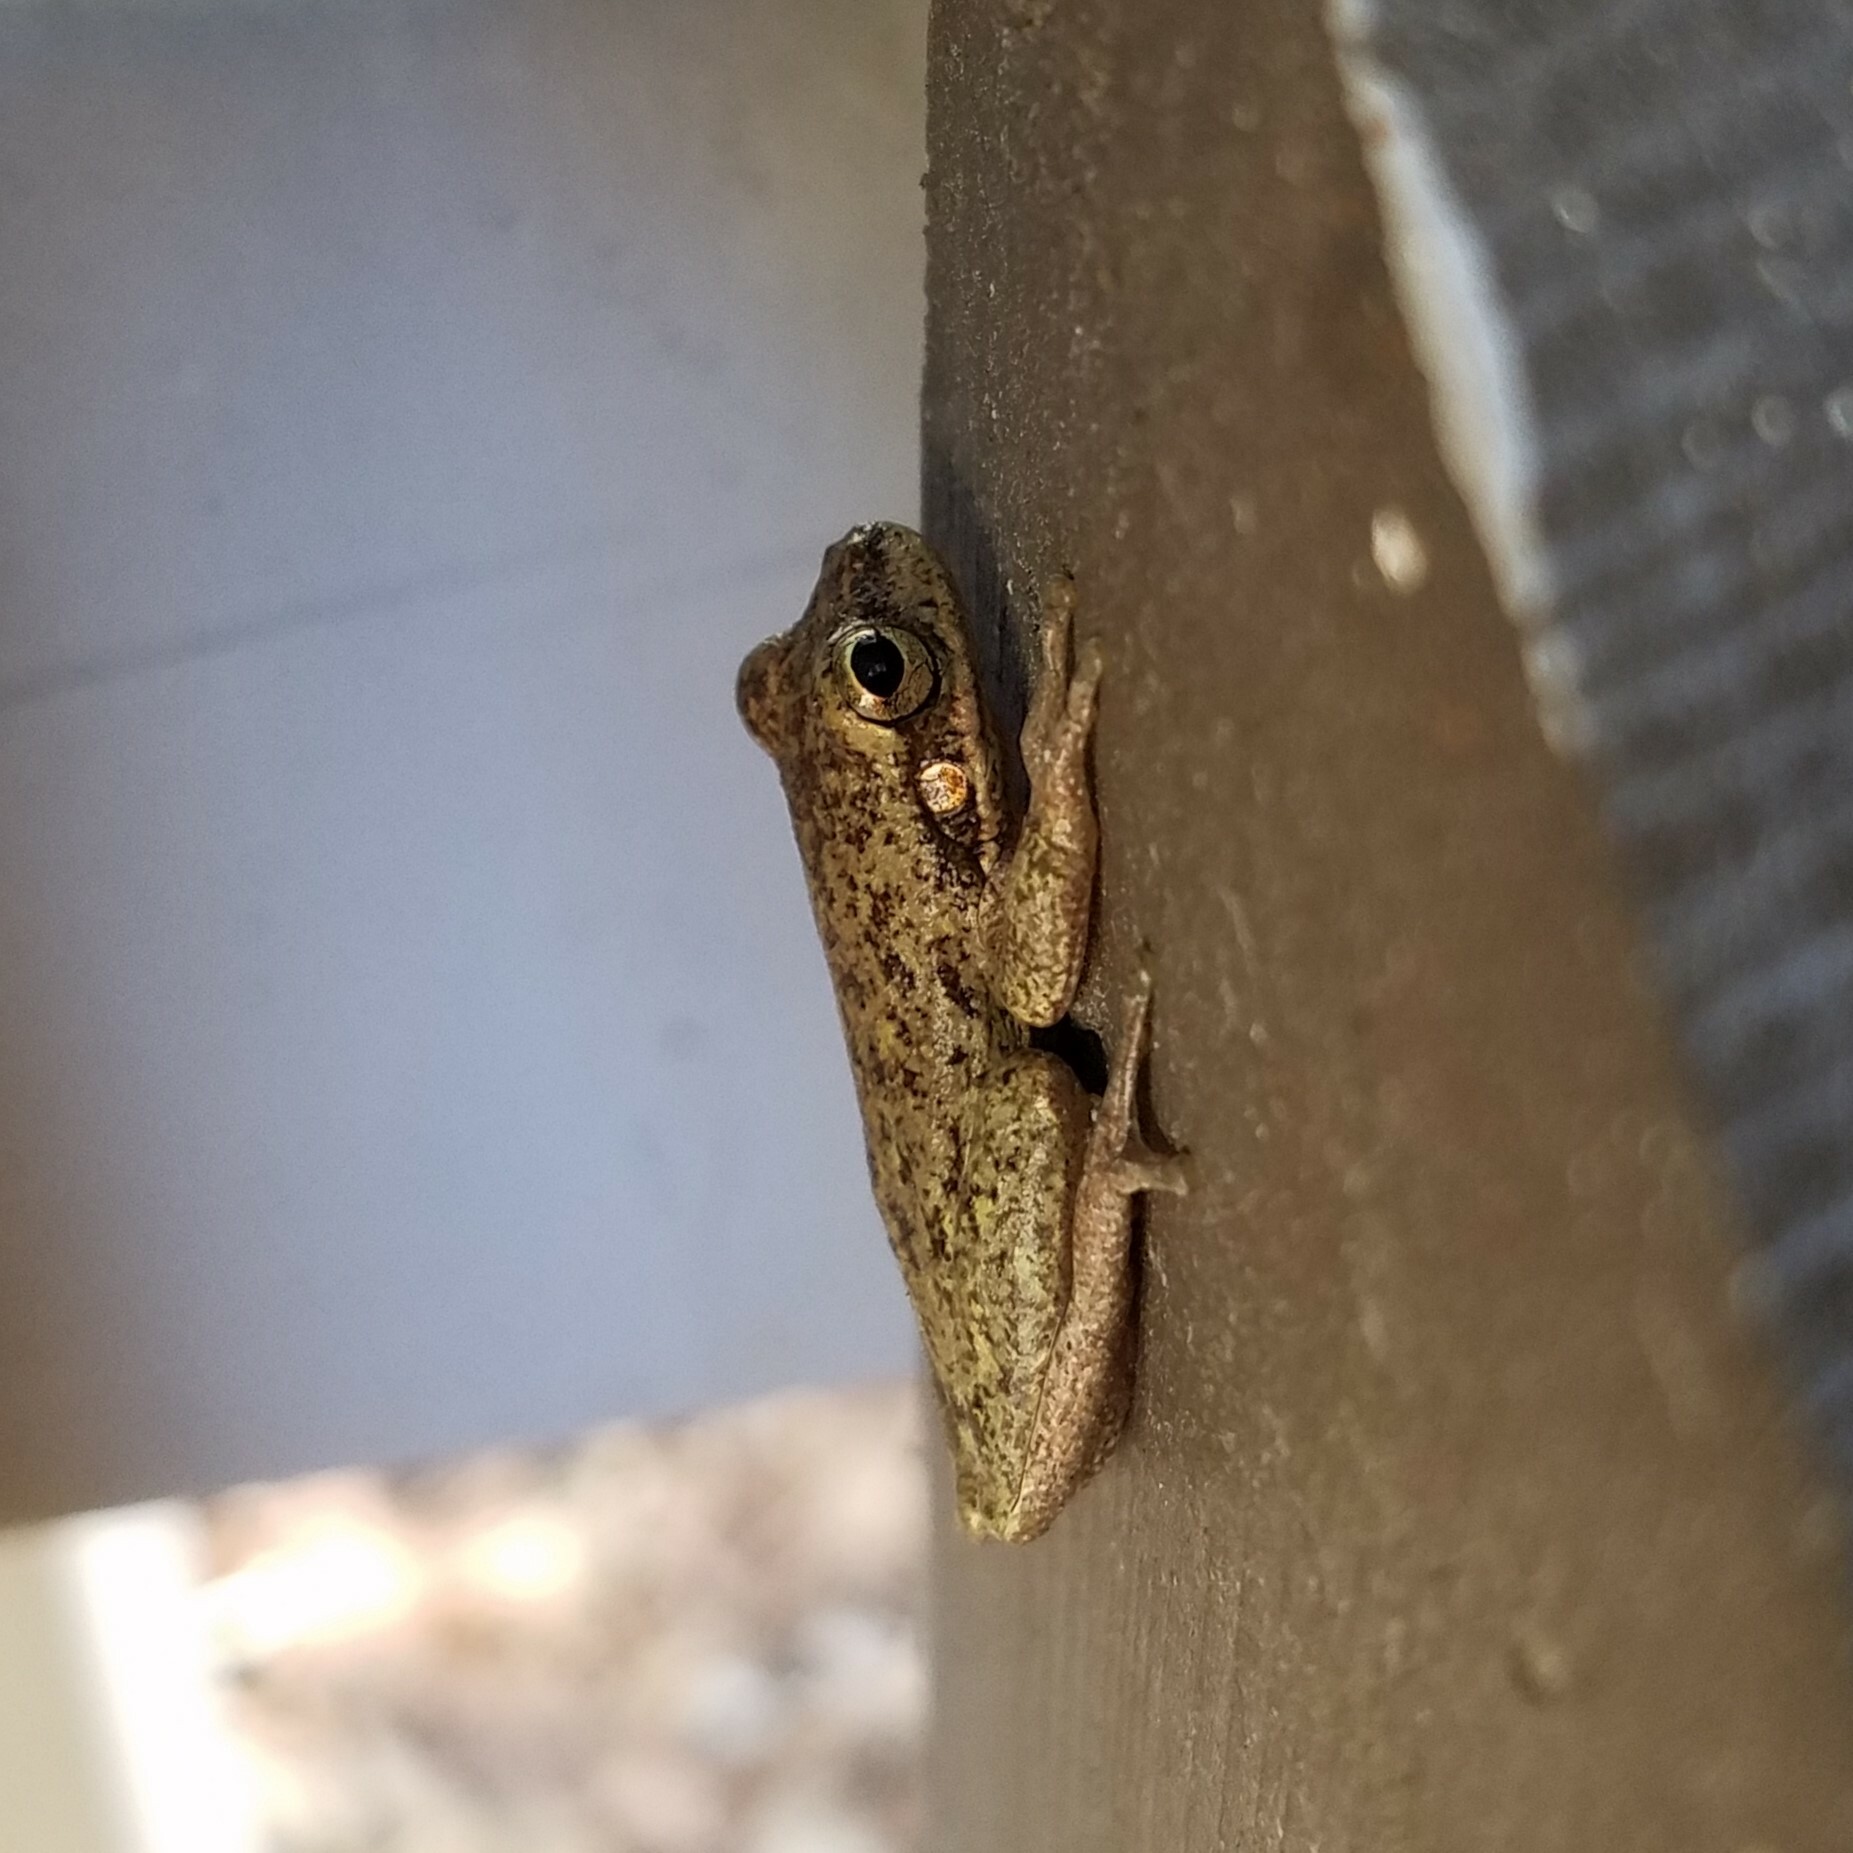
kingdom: Animalia
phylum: Chordata
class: Amphibia
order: Anura
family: Hylidae
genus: Dryophytes
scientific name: Dryophytes squirellus
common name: Squirrel treefrog
